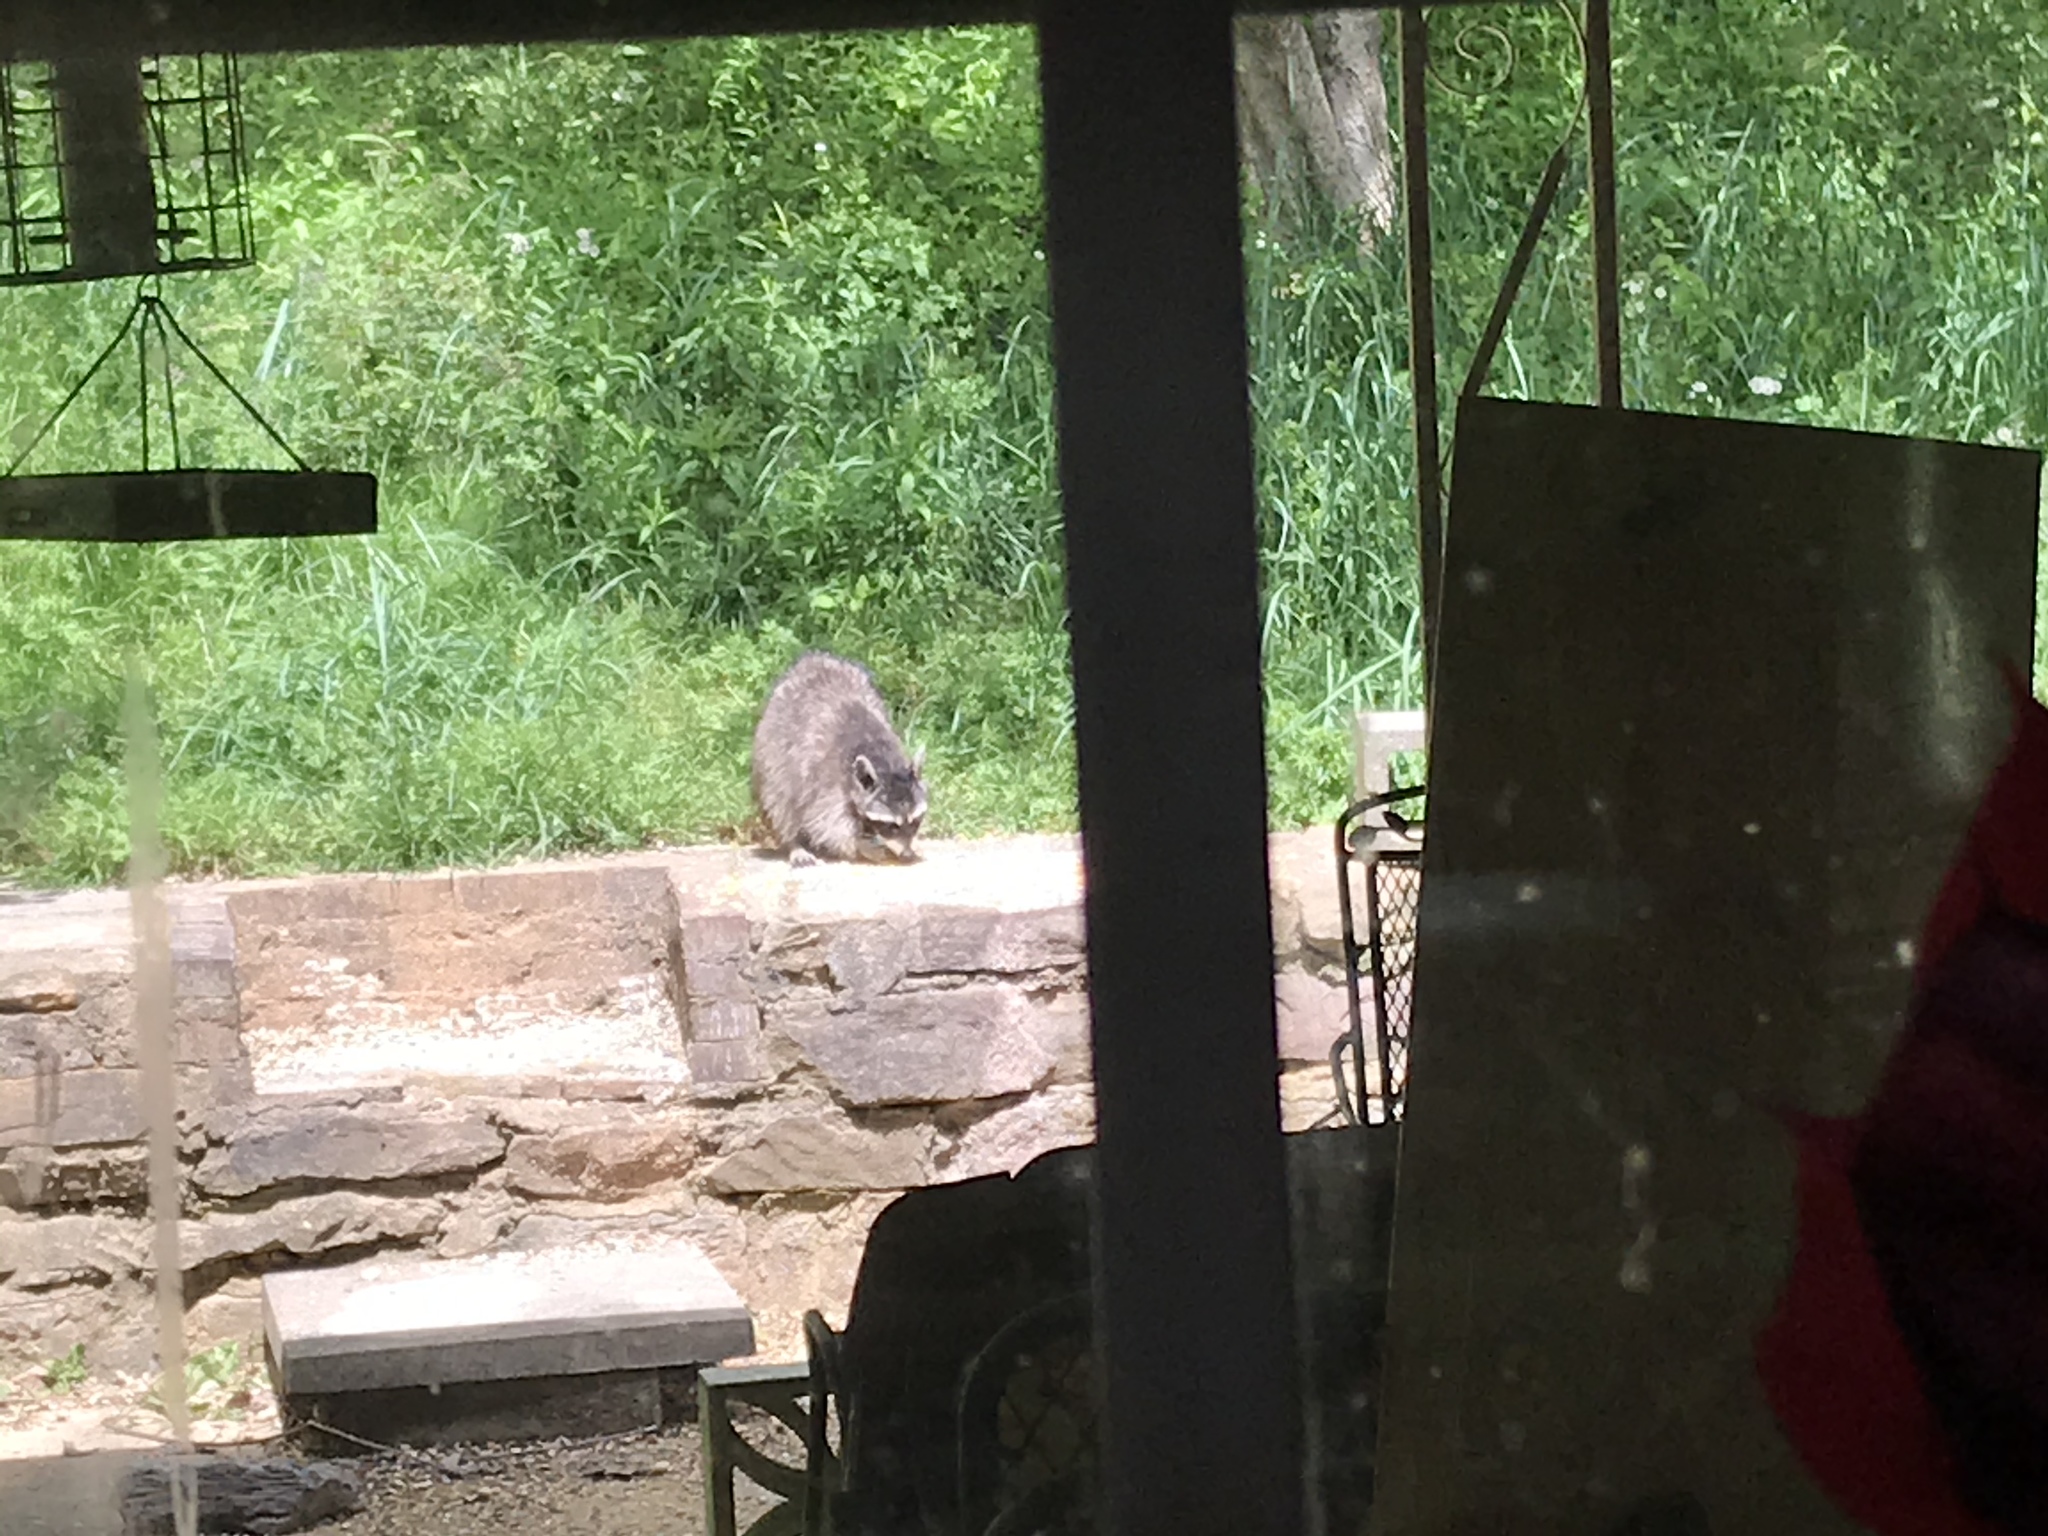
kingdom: Animalia
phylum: Chordata
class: Mammalia
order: Carnivora
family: Procyonidae
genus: Procyon
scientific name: Procyon lotor
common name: Raccoon
